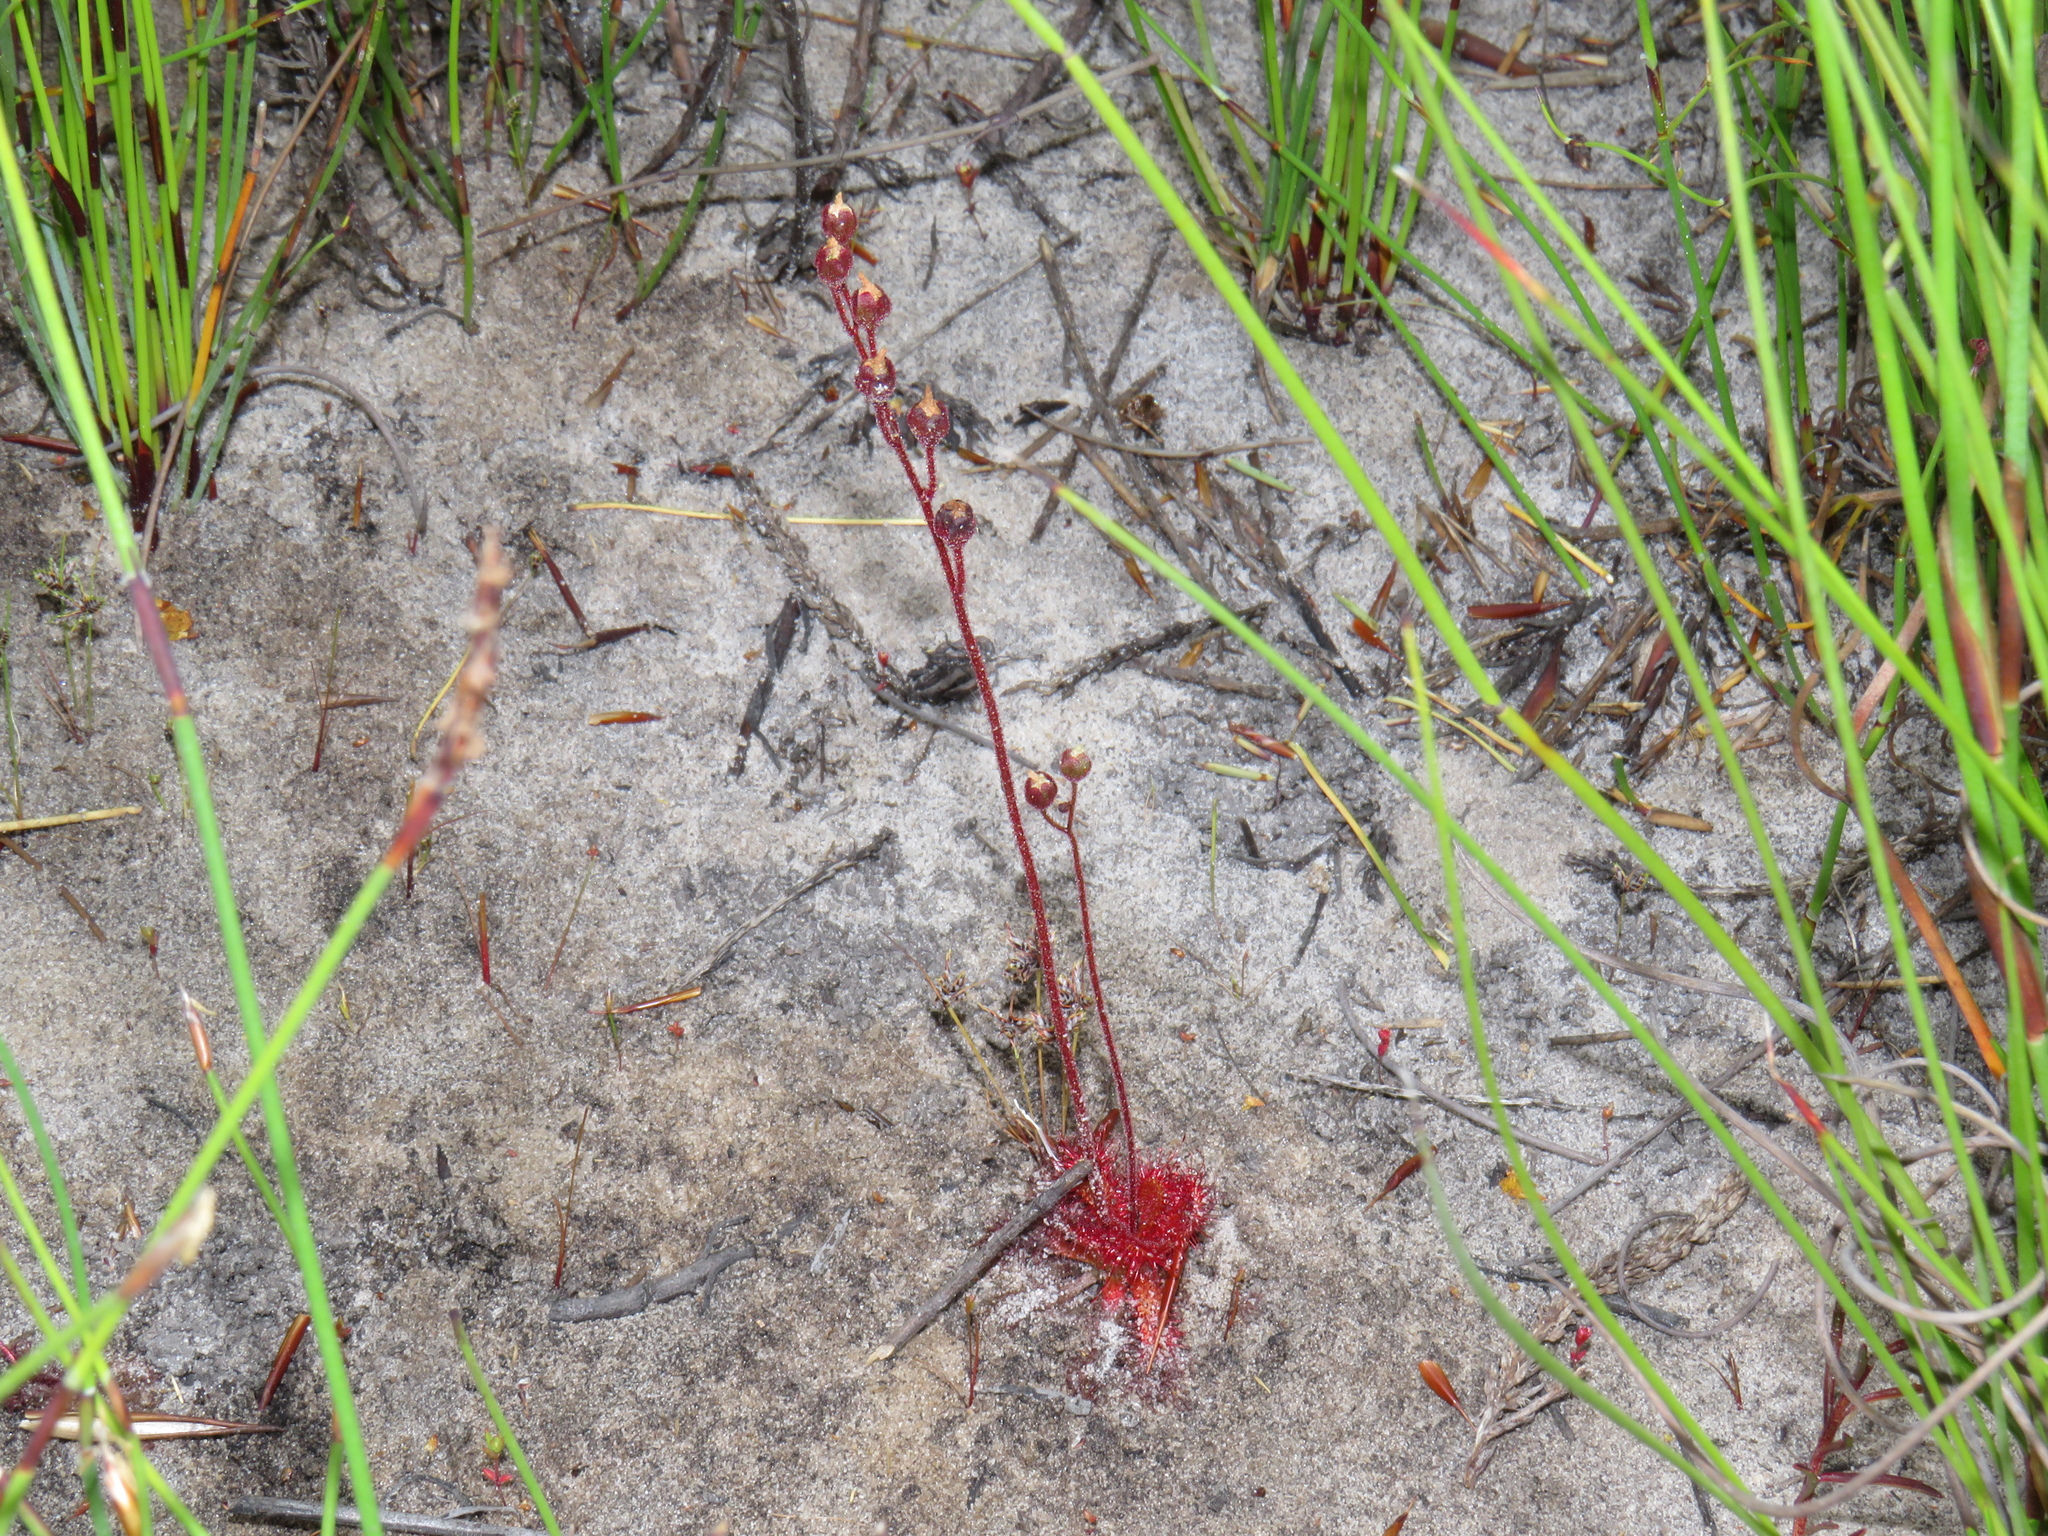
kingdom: Plantae
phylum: Tracheophyta
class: Magnoliopsida
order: Caryophyllales
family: Droseraceae
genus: Drosera
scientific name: Drosera trinervia
